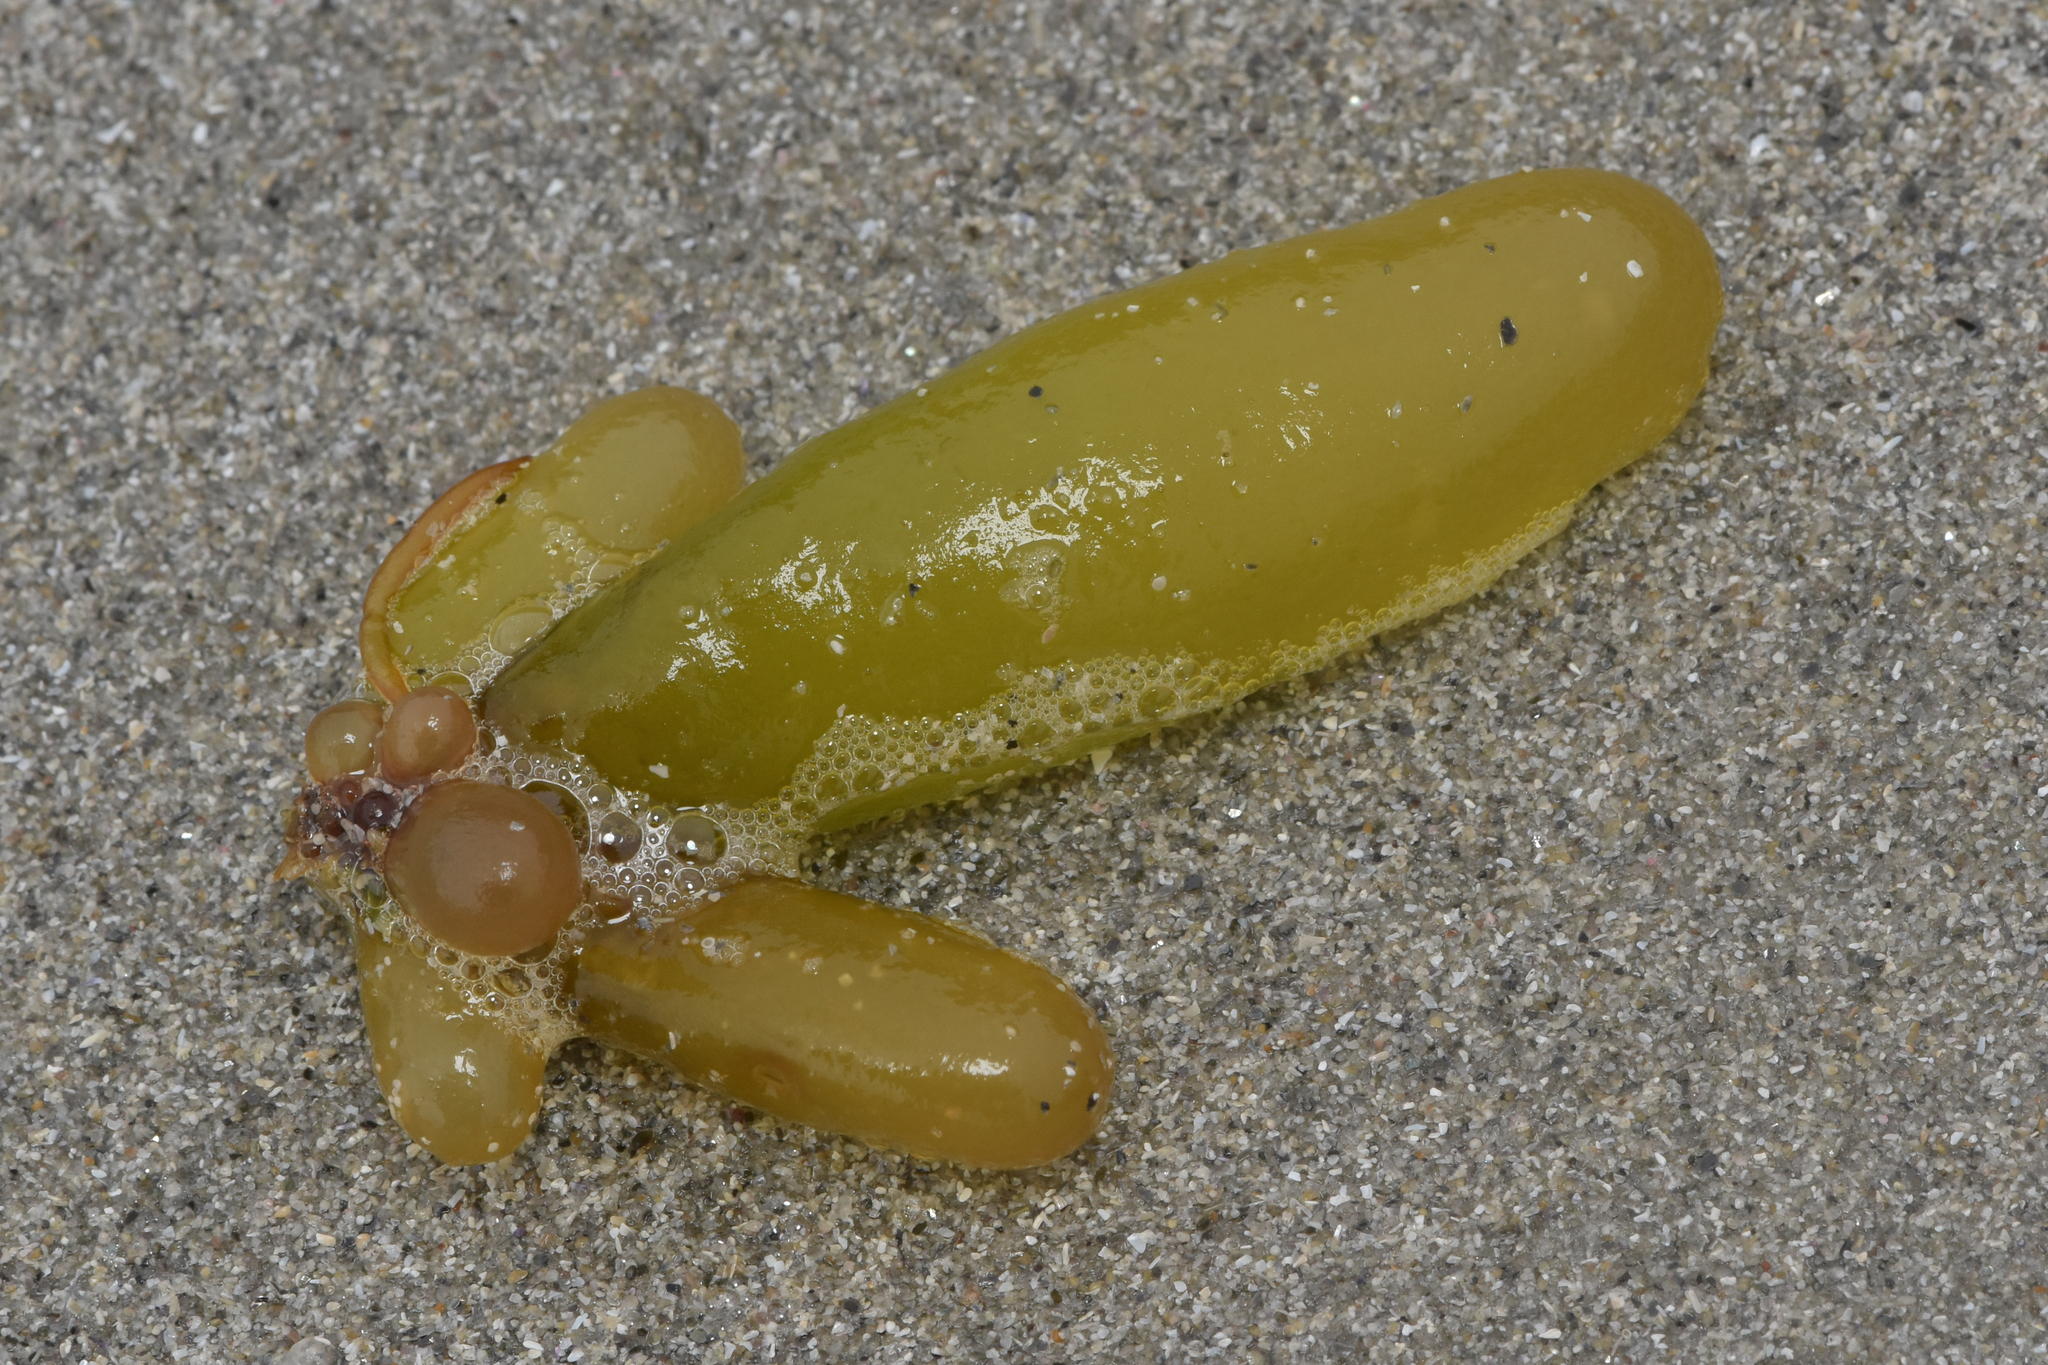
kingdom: Plantae
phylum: Rhodophyta
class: Florideophyceae
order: Palmariales
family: Palmariaceae
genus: Halosaccion
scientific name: Halosaccion glandiforme
